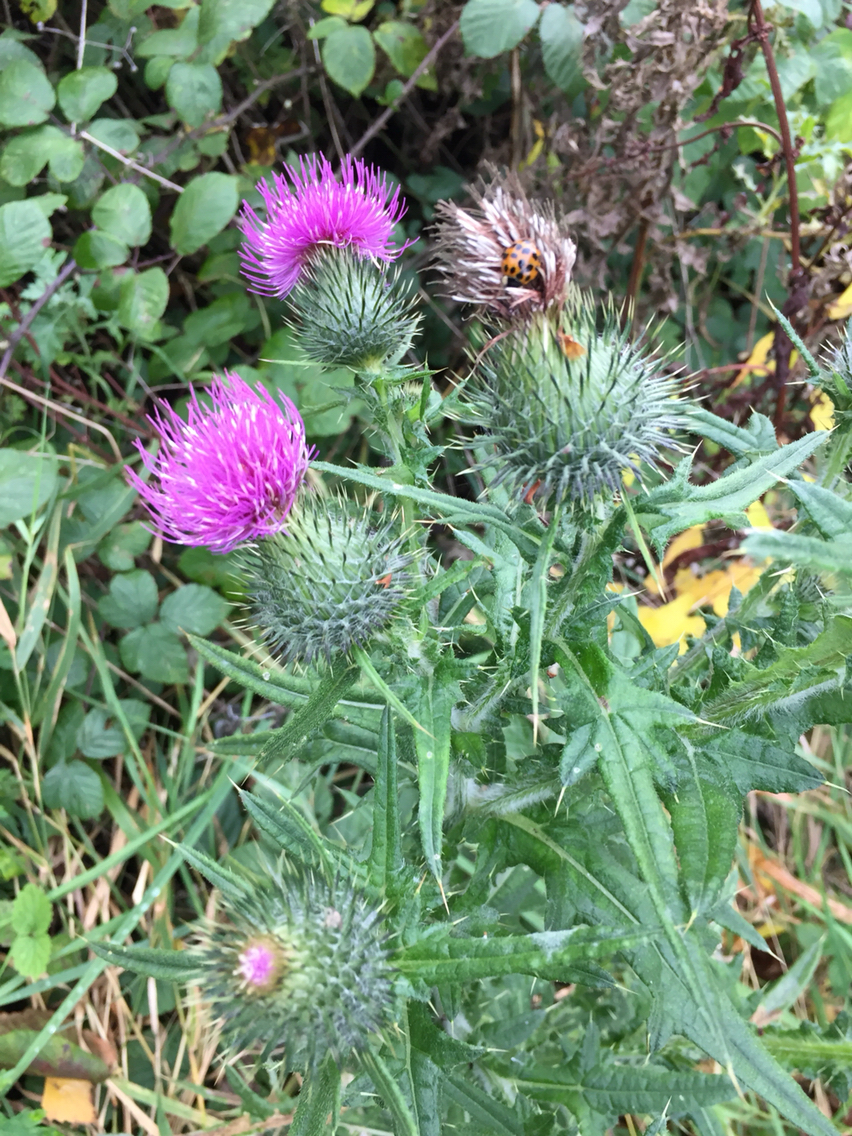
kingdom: Plantae
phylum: Tracheophyta
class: Magnoliopsida
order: Asterales
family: Asteraceae
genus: Cirsium
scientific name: Cirsium vulgare
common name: Bull thistle
